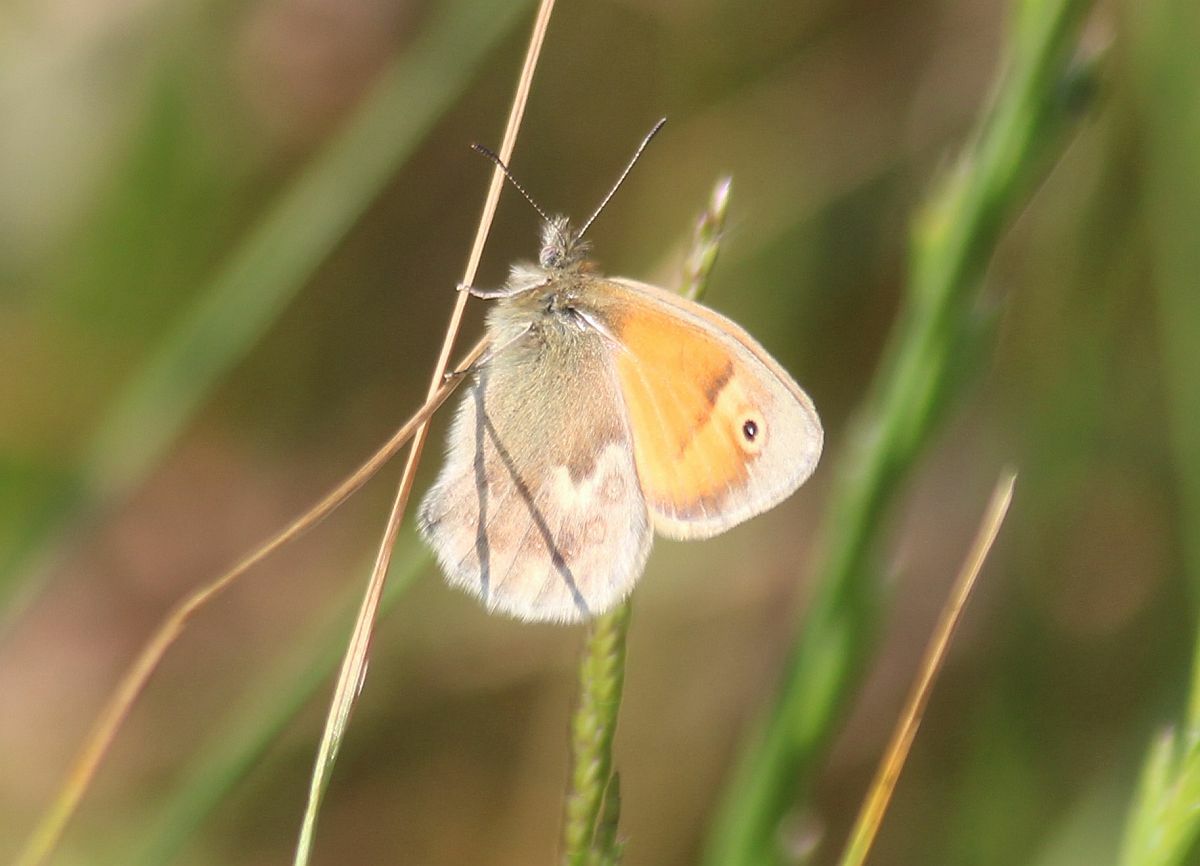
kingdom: Animalia
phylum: Arthropoda
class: Insecta
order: Lepidoptera
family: Nymphalidae
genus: Coenonympha
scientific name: Coenonympha pamphilus
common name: Small heath
